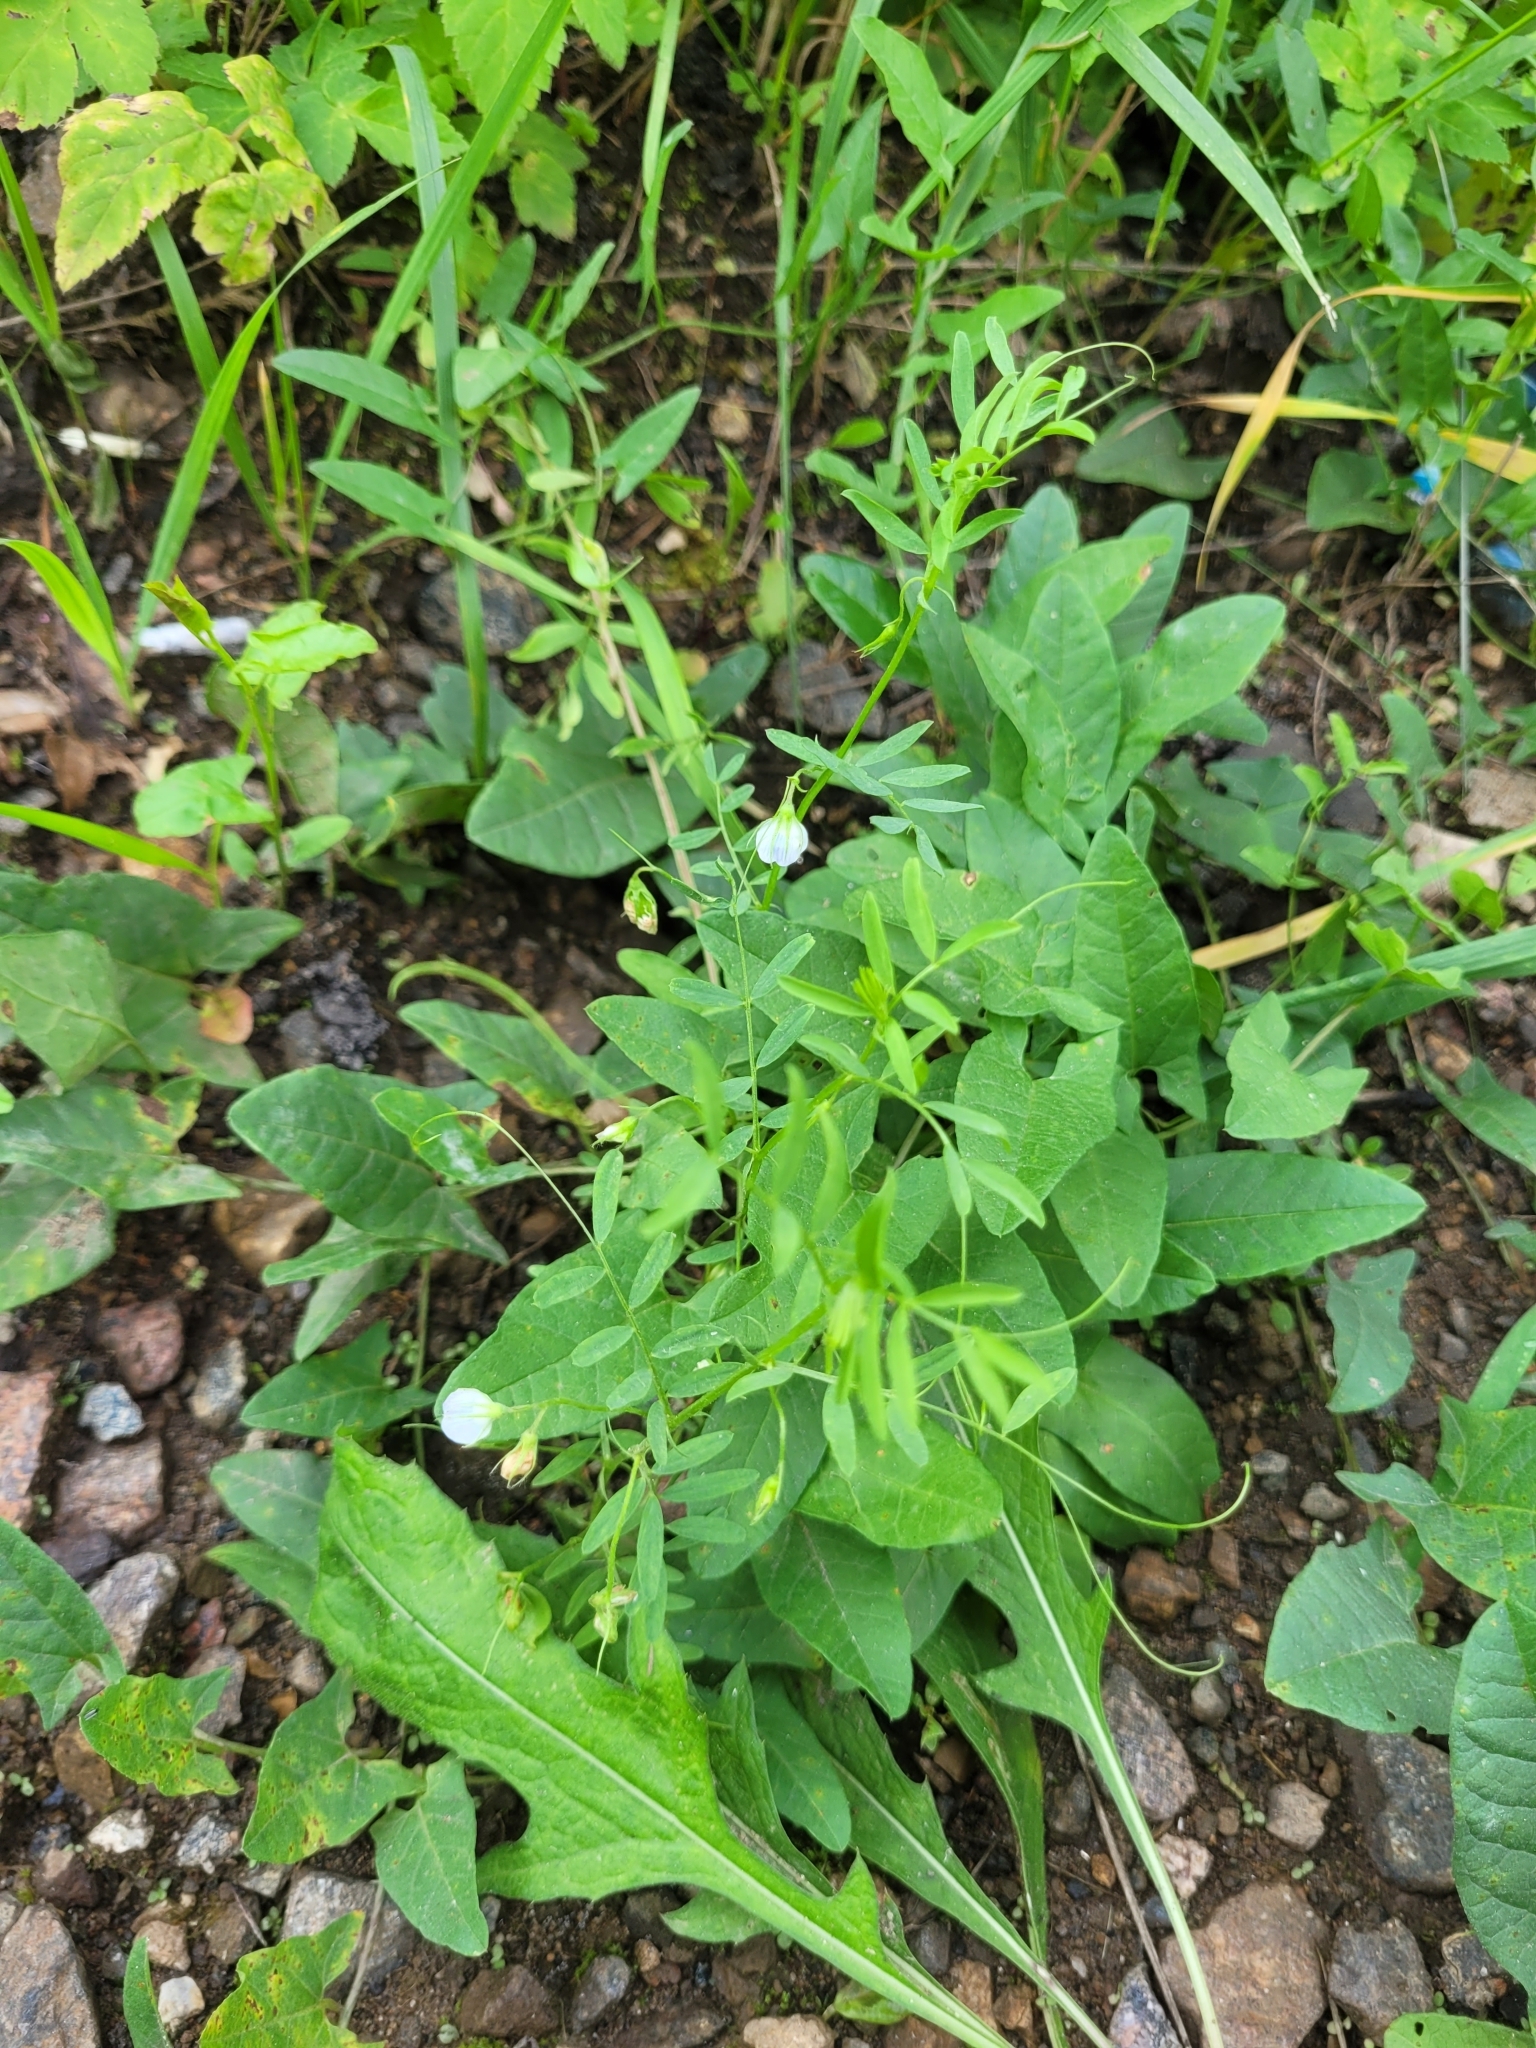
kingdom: Plantae
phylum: Tracheophyta
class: Magnoliopsida
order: Fabales
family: Fabaceae
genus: Vicia
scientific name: Vicia lens
